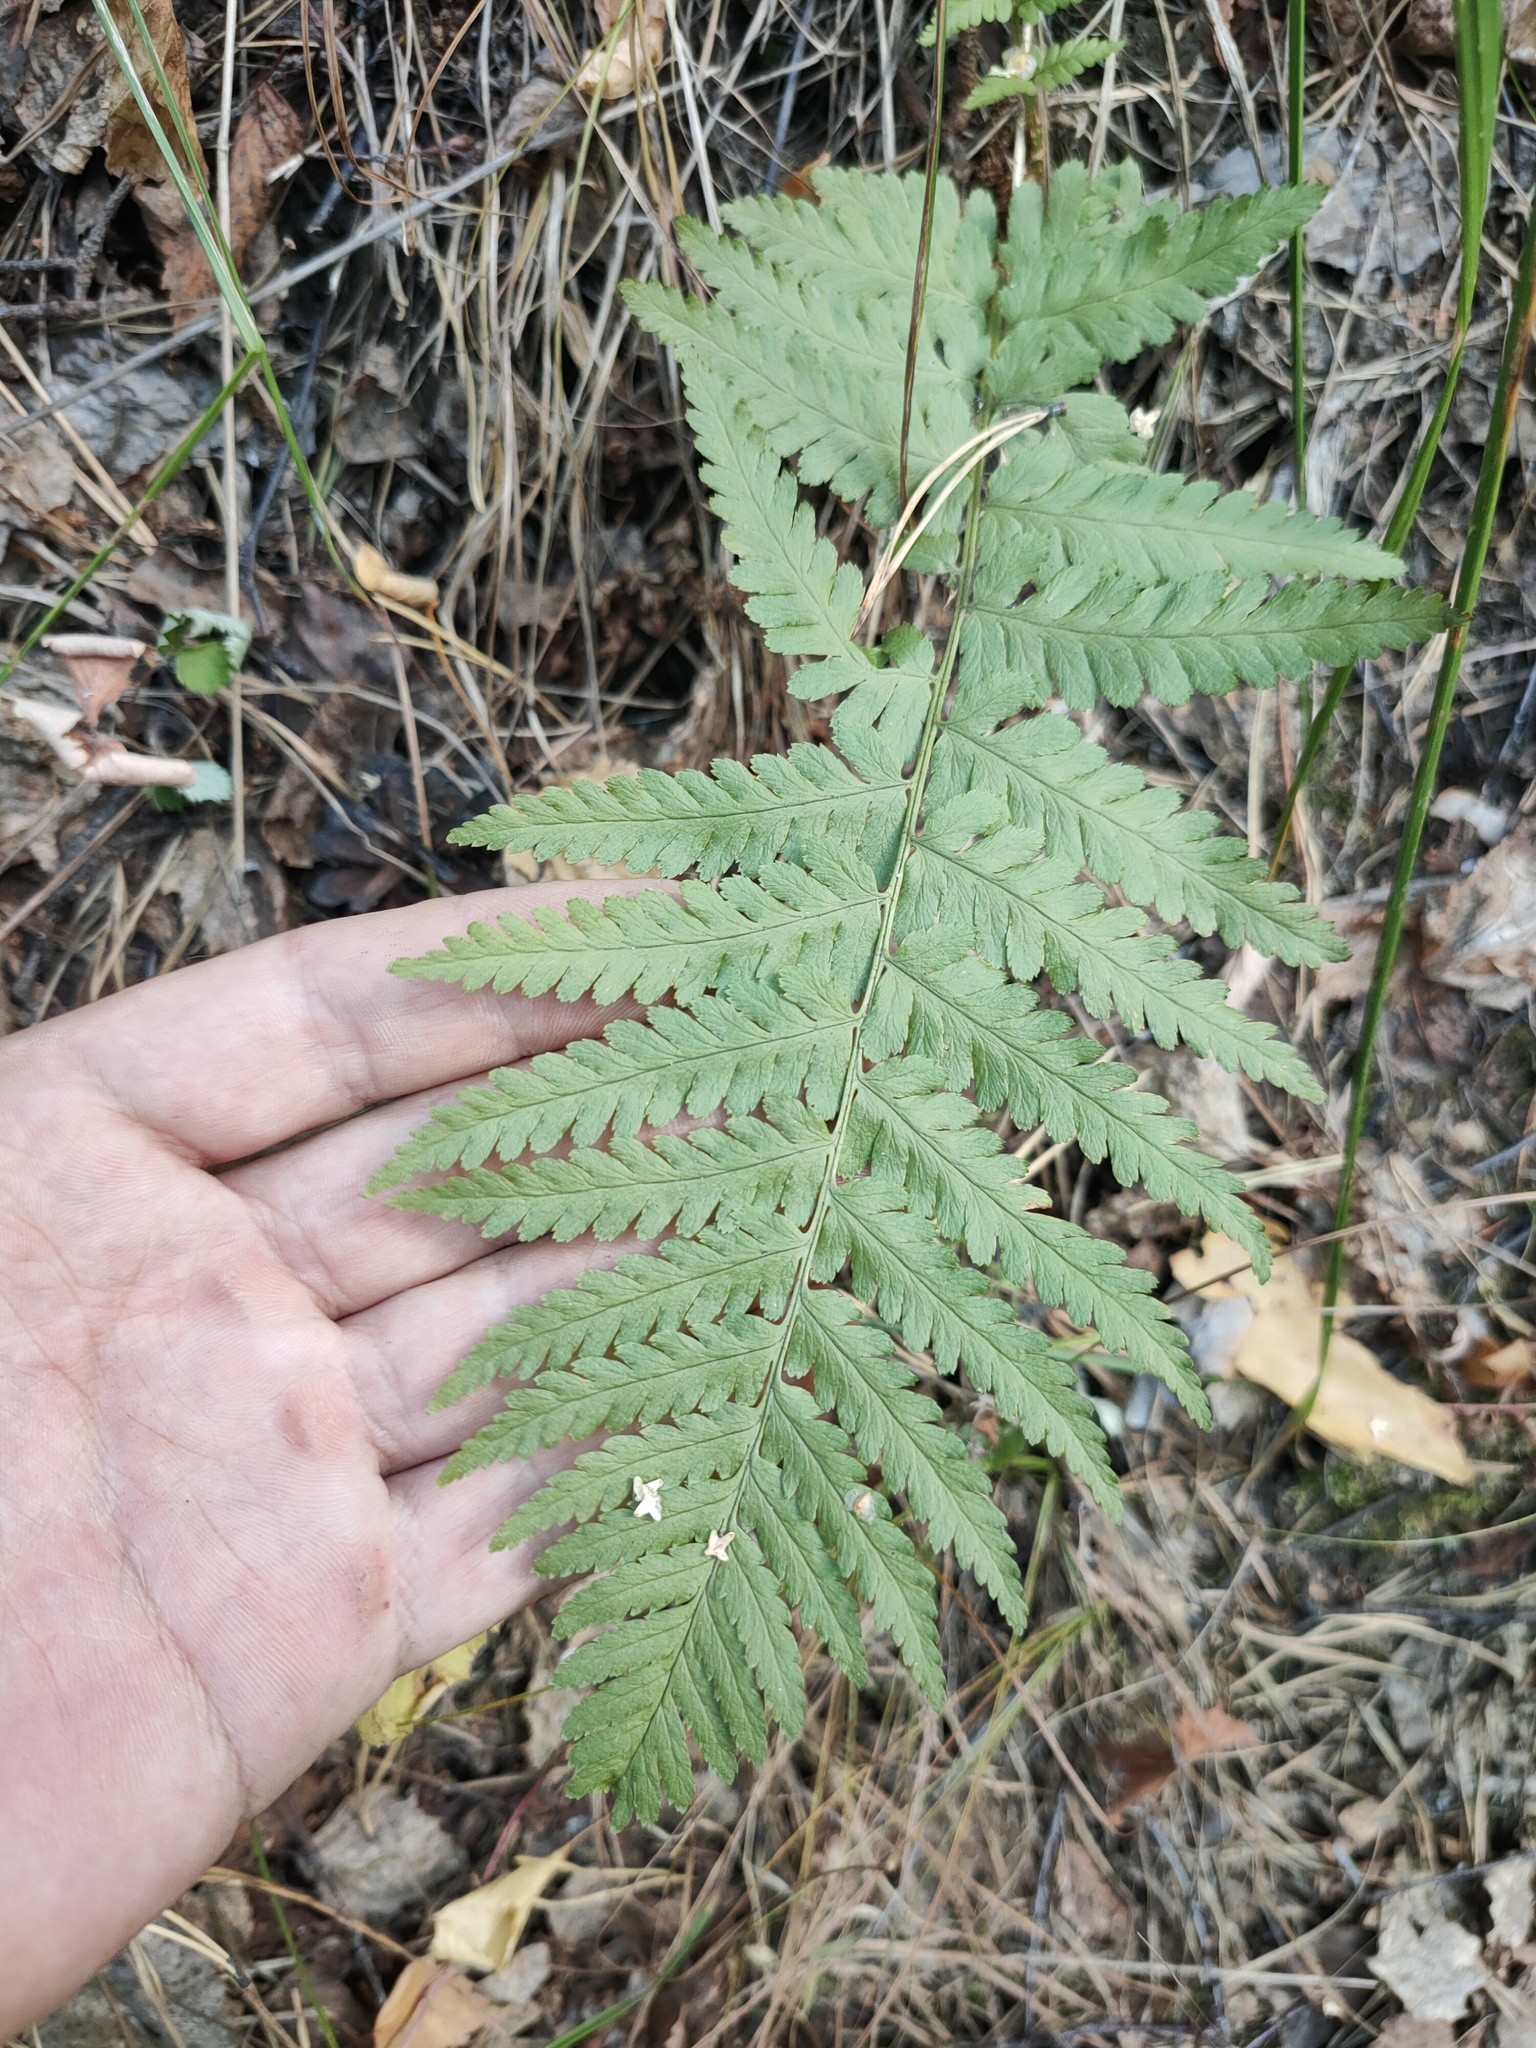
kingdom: Plantae
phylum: Tracheophyta
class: Polypodiopsida
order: Polypodiales
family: Dryopteridaceae
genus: Dryopteris
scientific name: Dryopteris filix-mas
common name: Male fern
